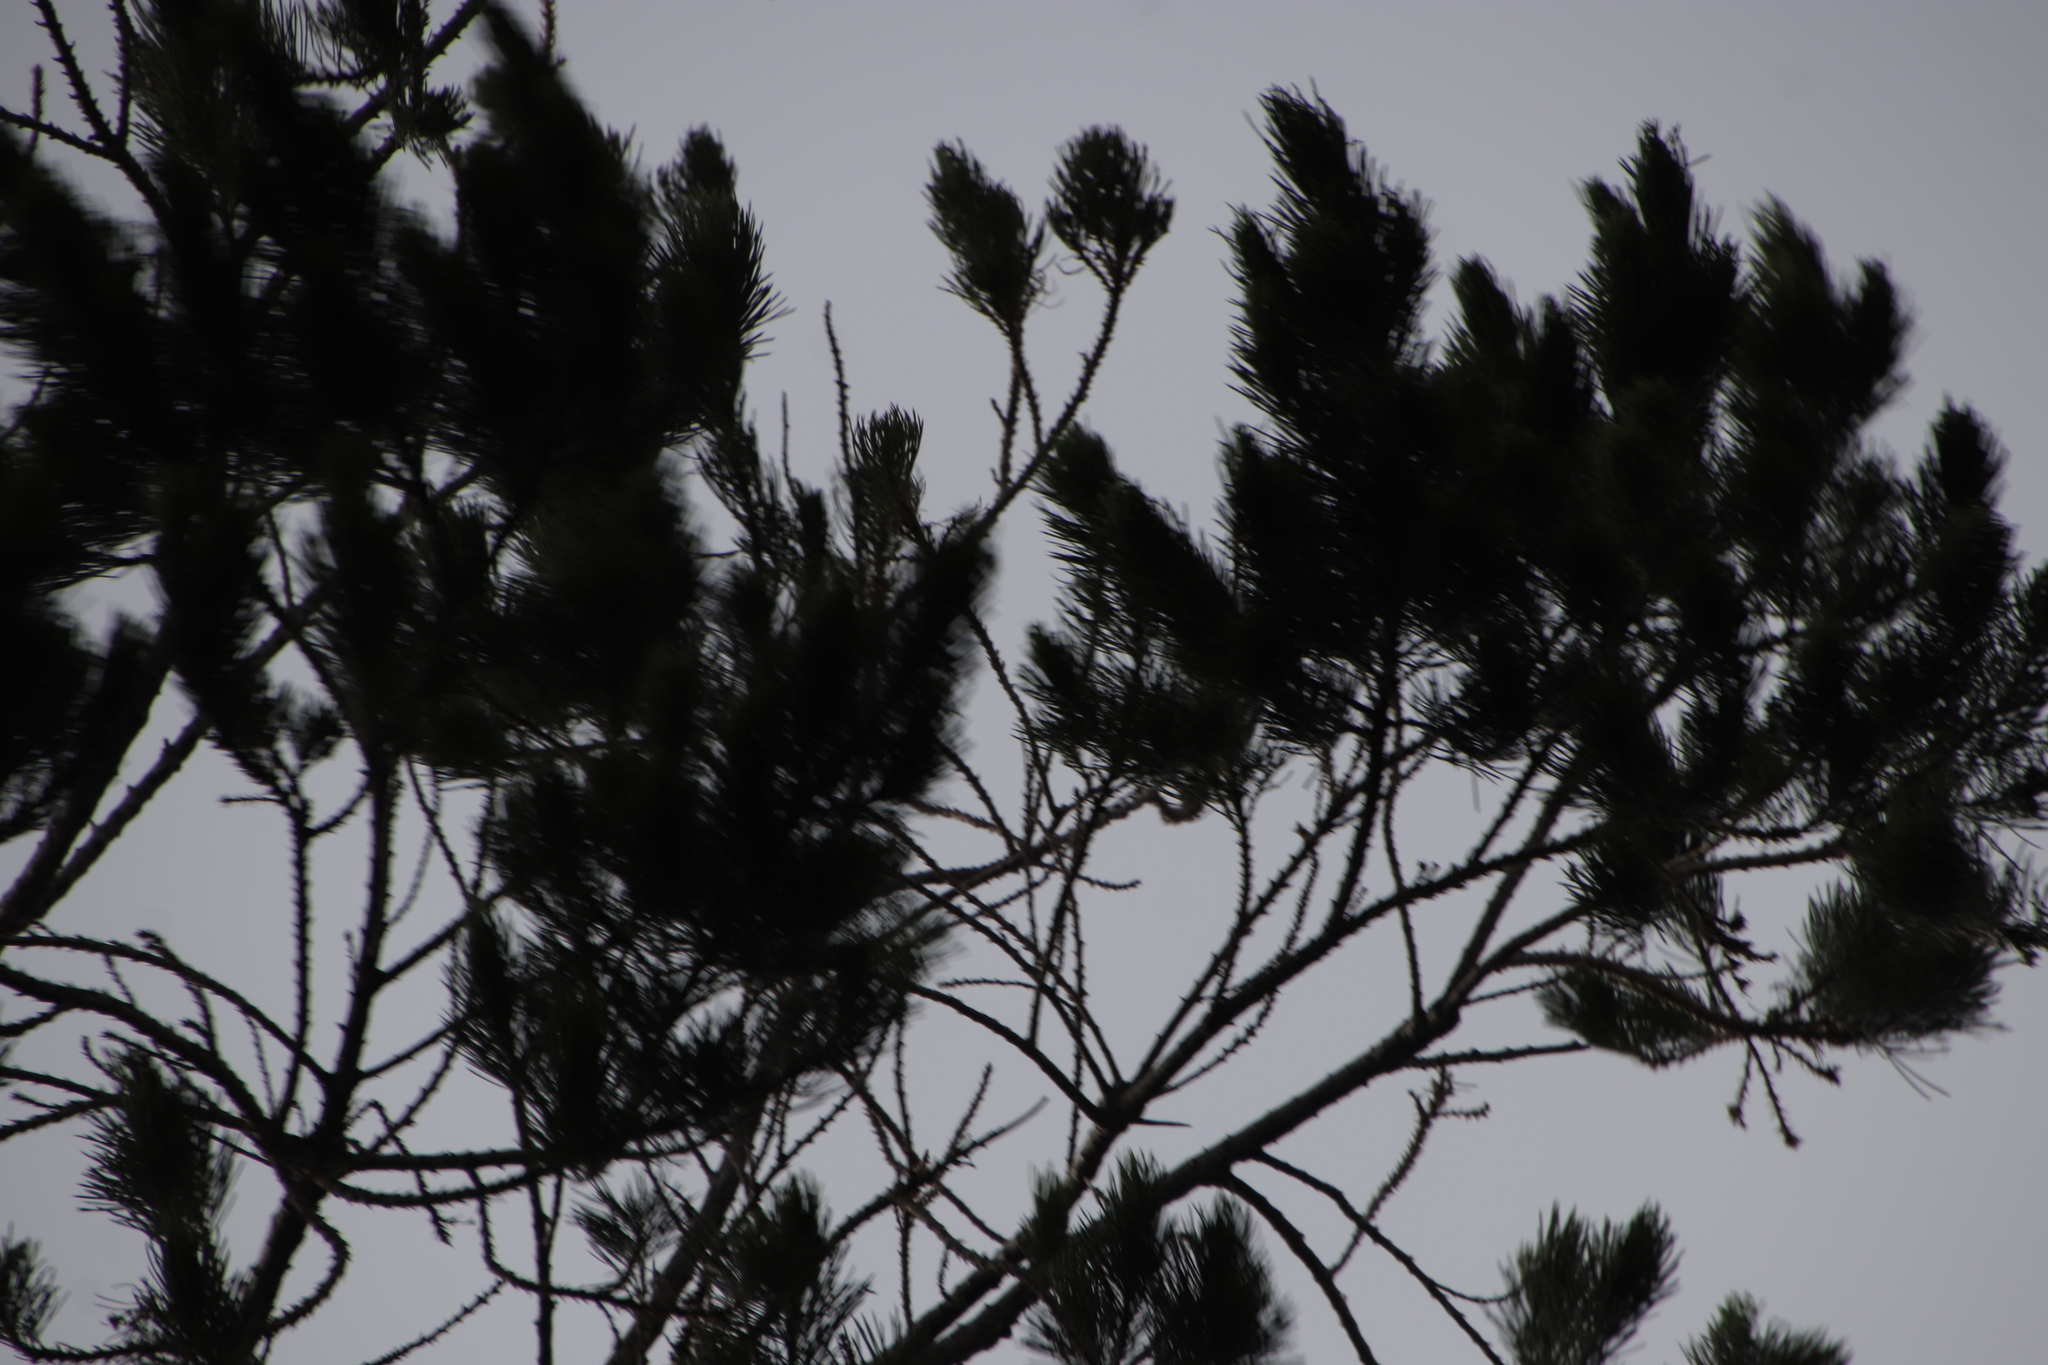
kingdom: Plantae
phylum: Tracheophyta
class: Magnoliopsida
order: Fabales
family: Fabaceae
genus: Psoralea
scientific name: Psoralea pinnata
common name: African scurfpea
